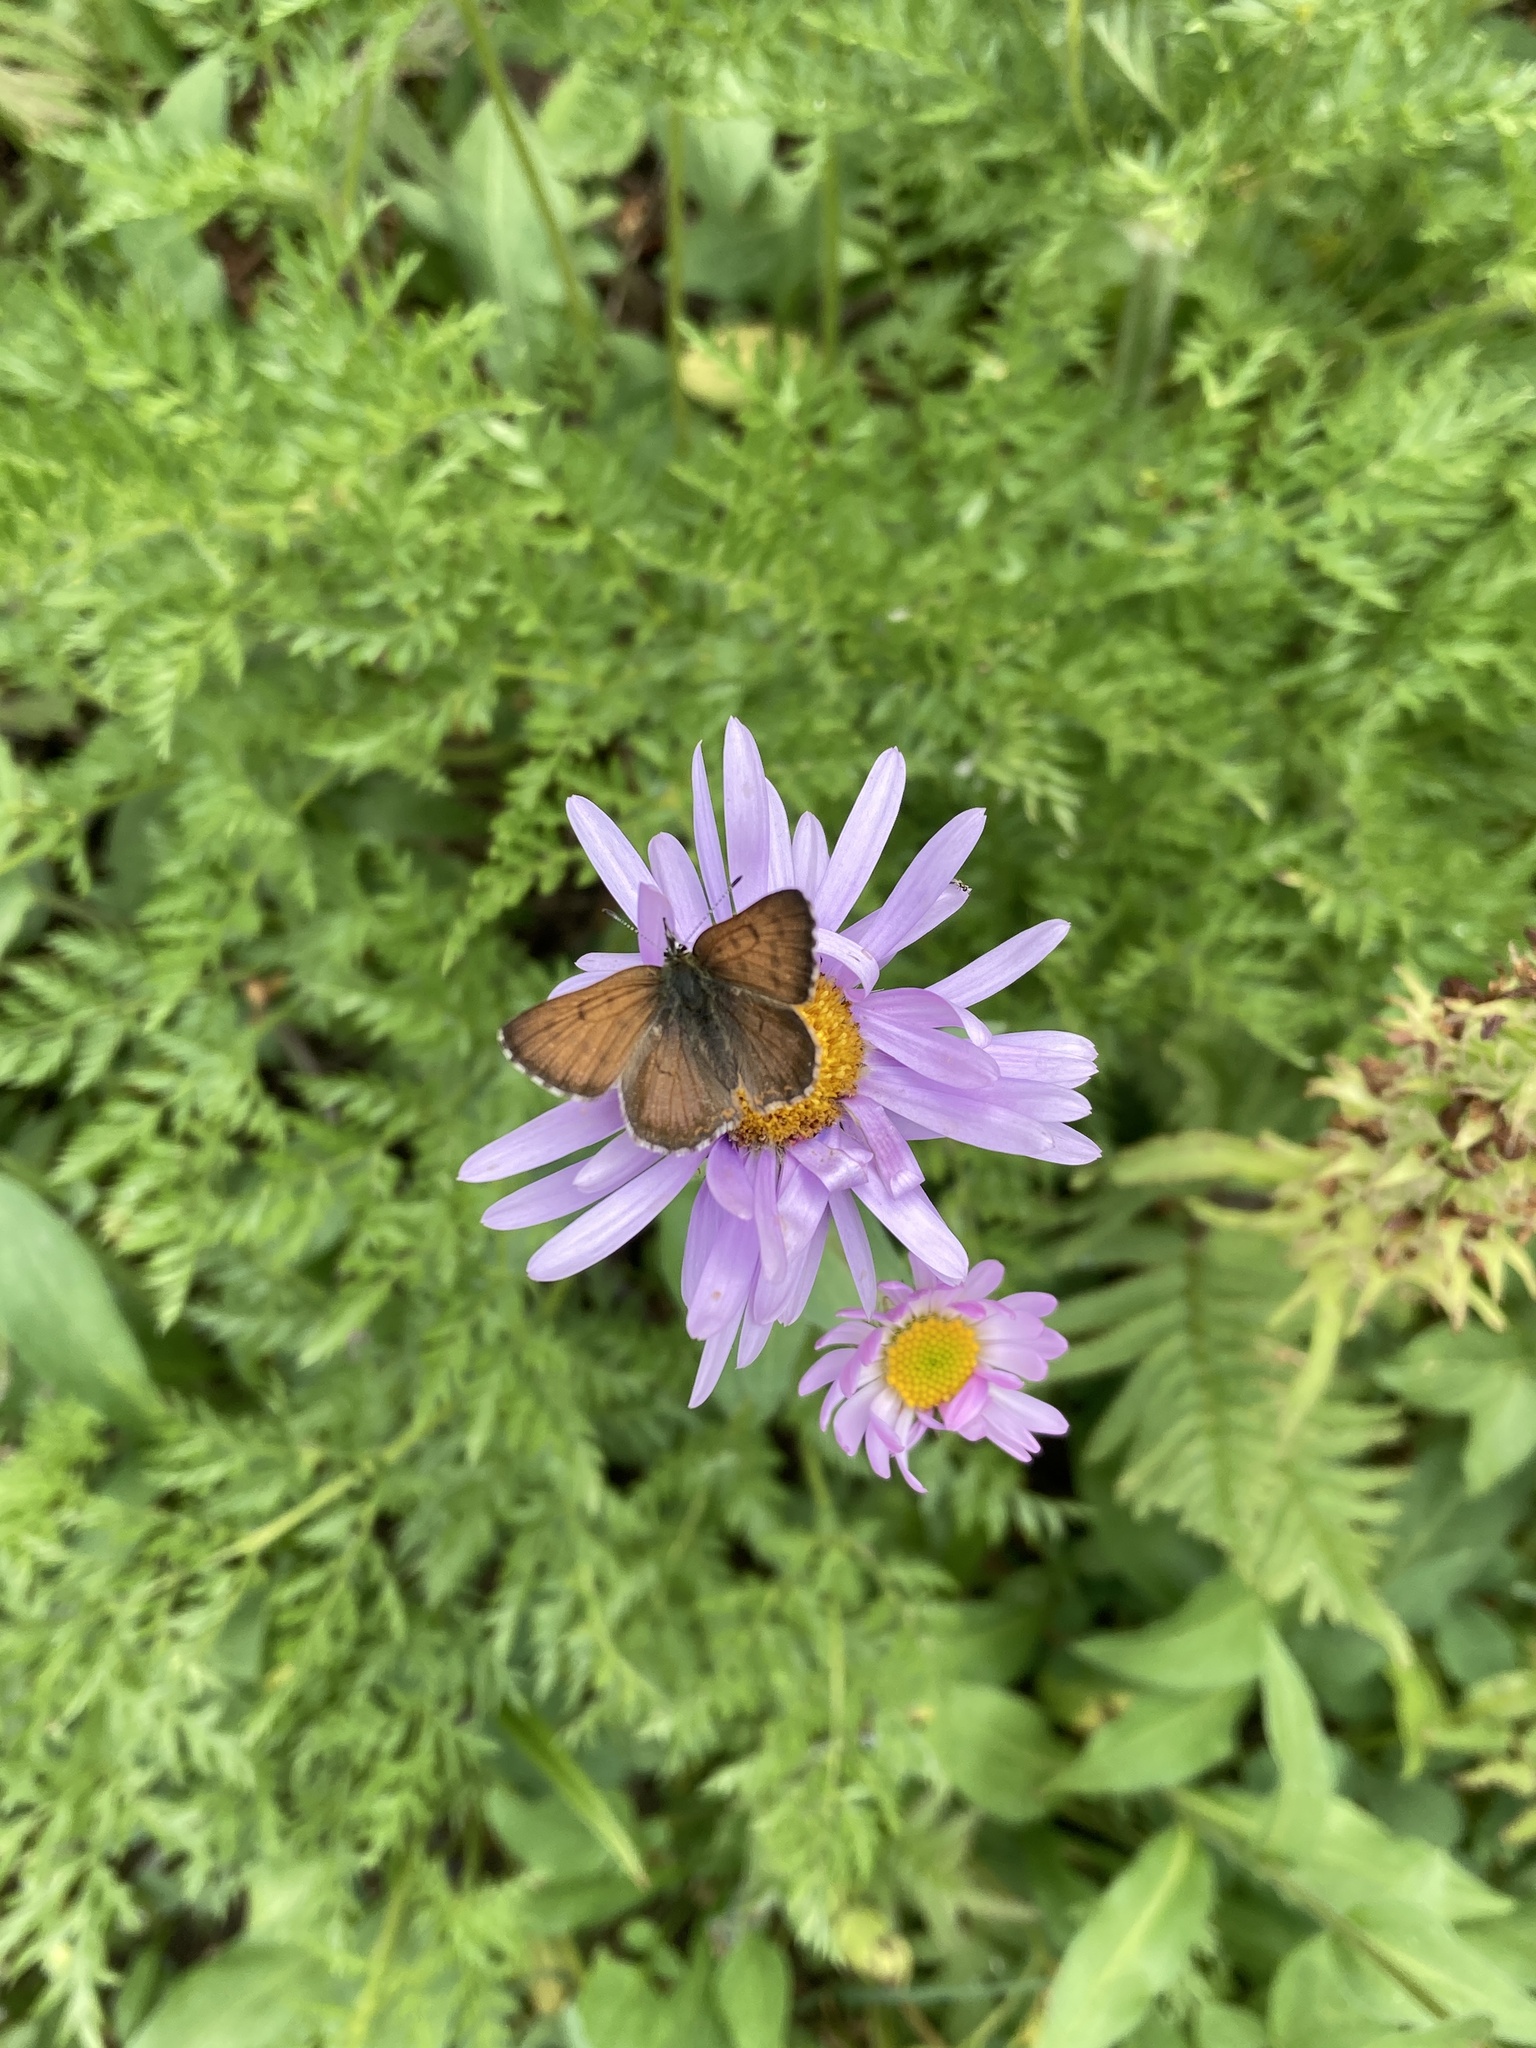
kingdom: Animalia
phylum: Arthropoda
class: Insecta
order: Lepidoptera
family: Lycaenidae
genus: Tharsalea
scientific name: Tharsalea mariposa
